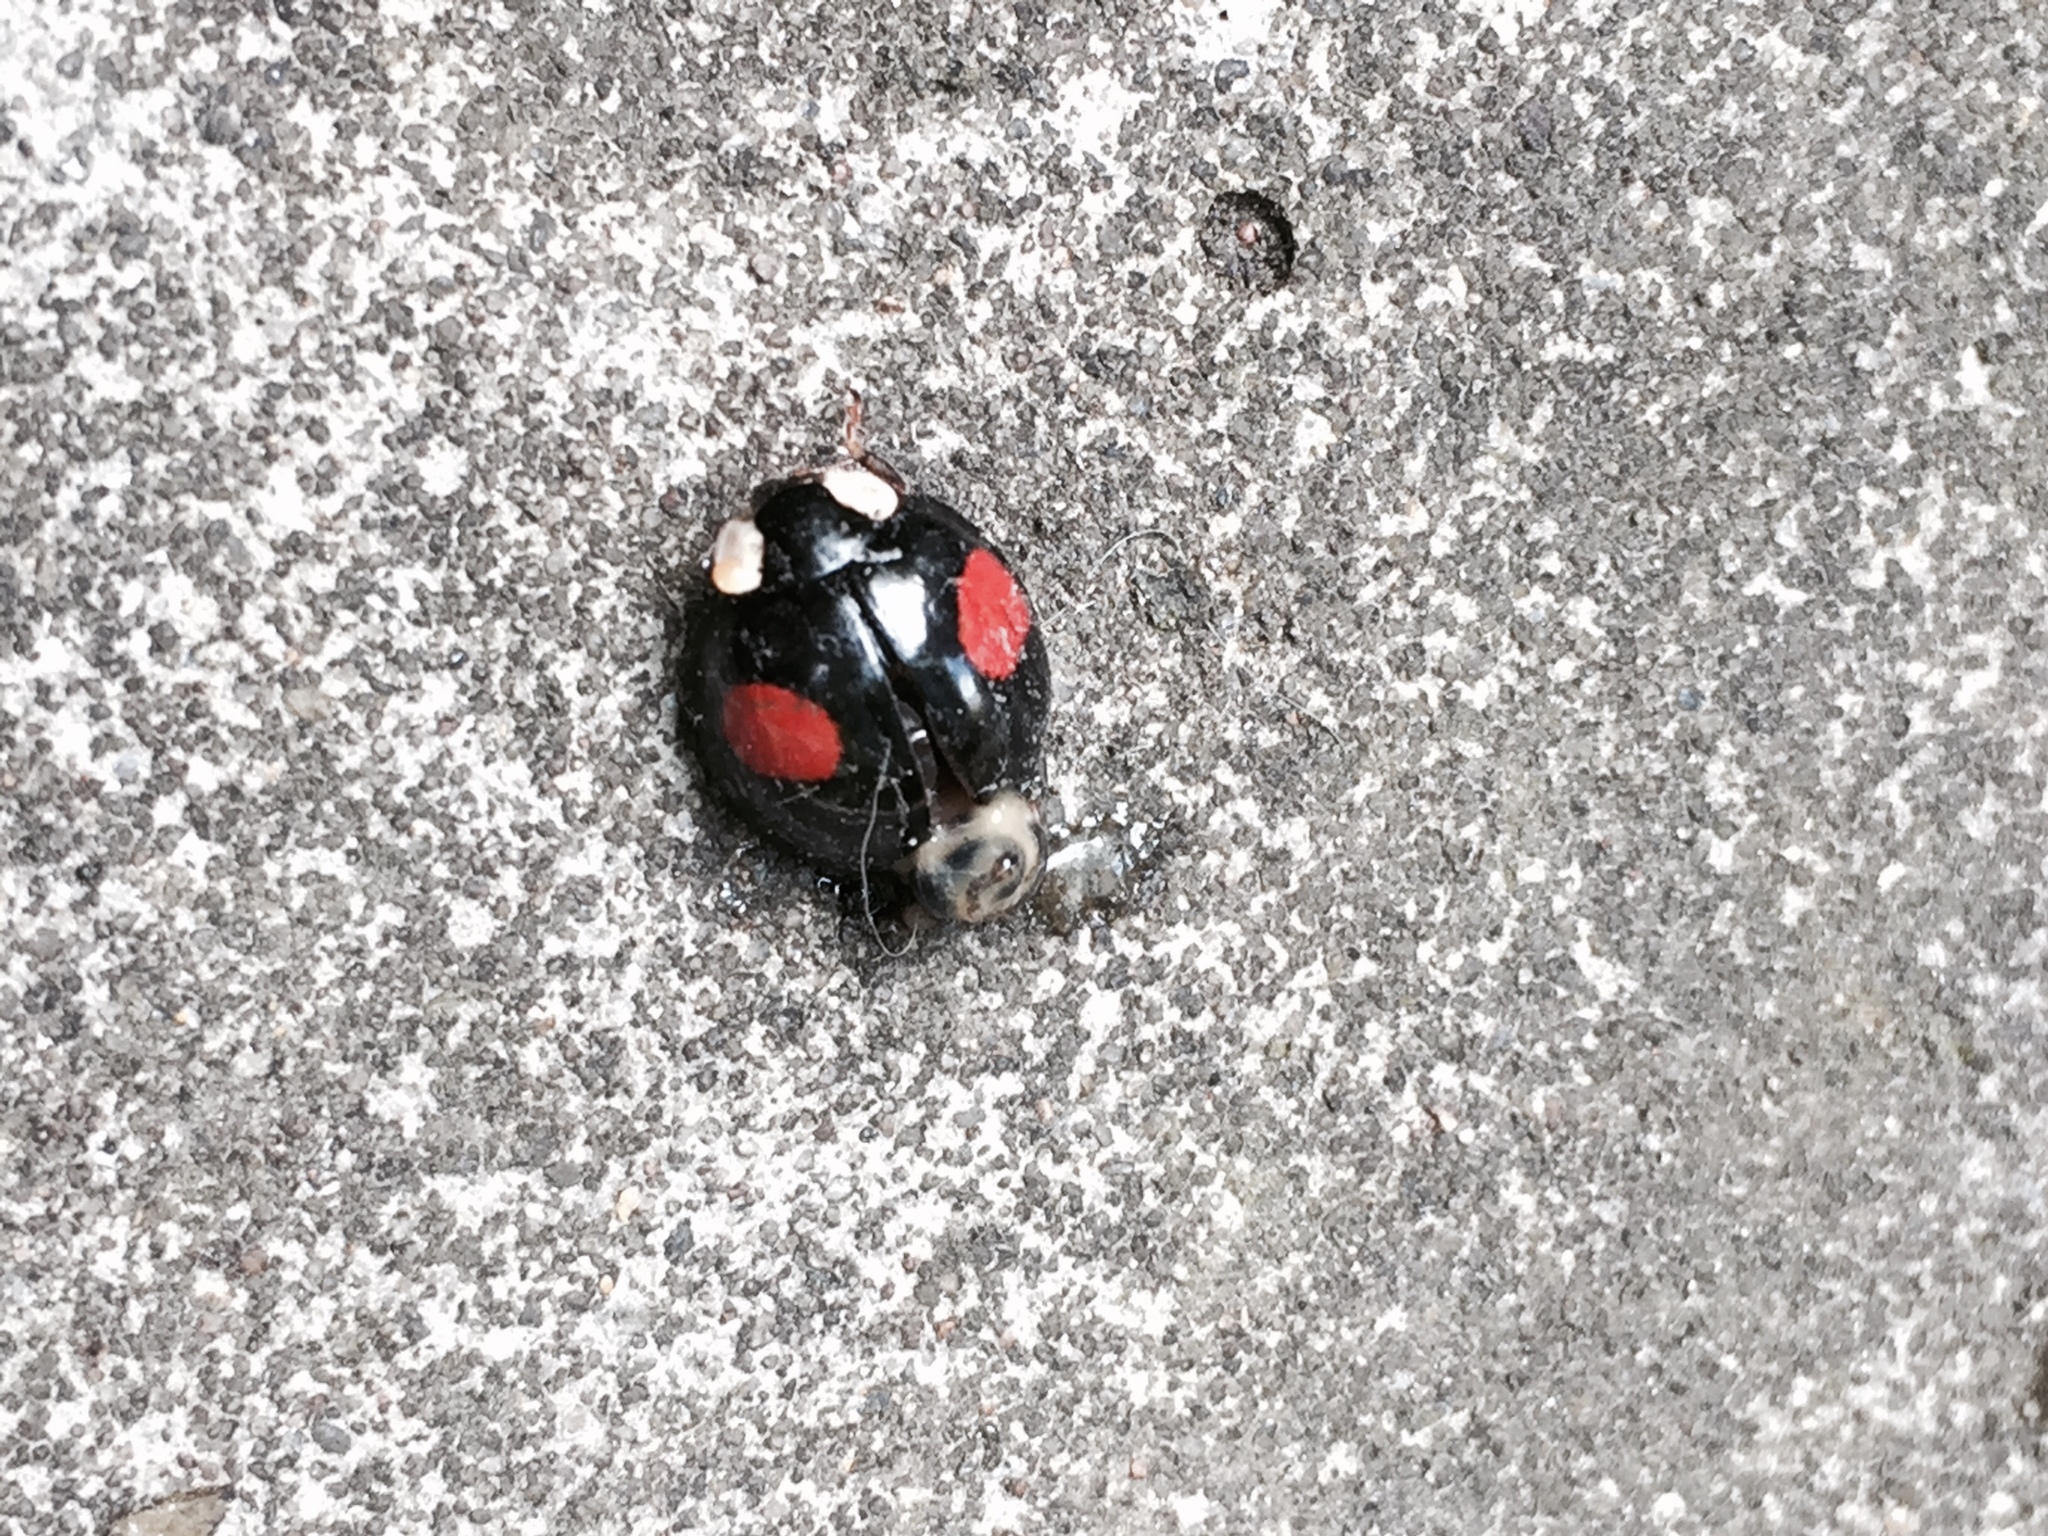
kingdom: Animalia
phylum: Arthropoda
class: Insecta
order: Coleoptera
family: Coccinellidae
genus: Harmonia
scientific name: Harmonia axyridis
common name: Harlequin ladybird
